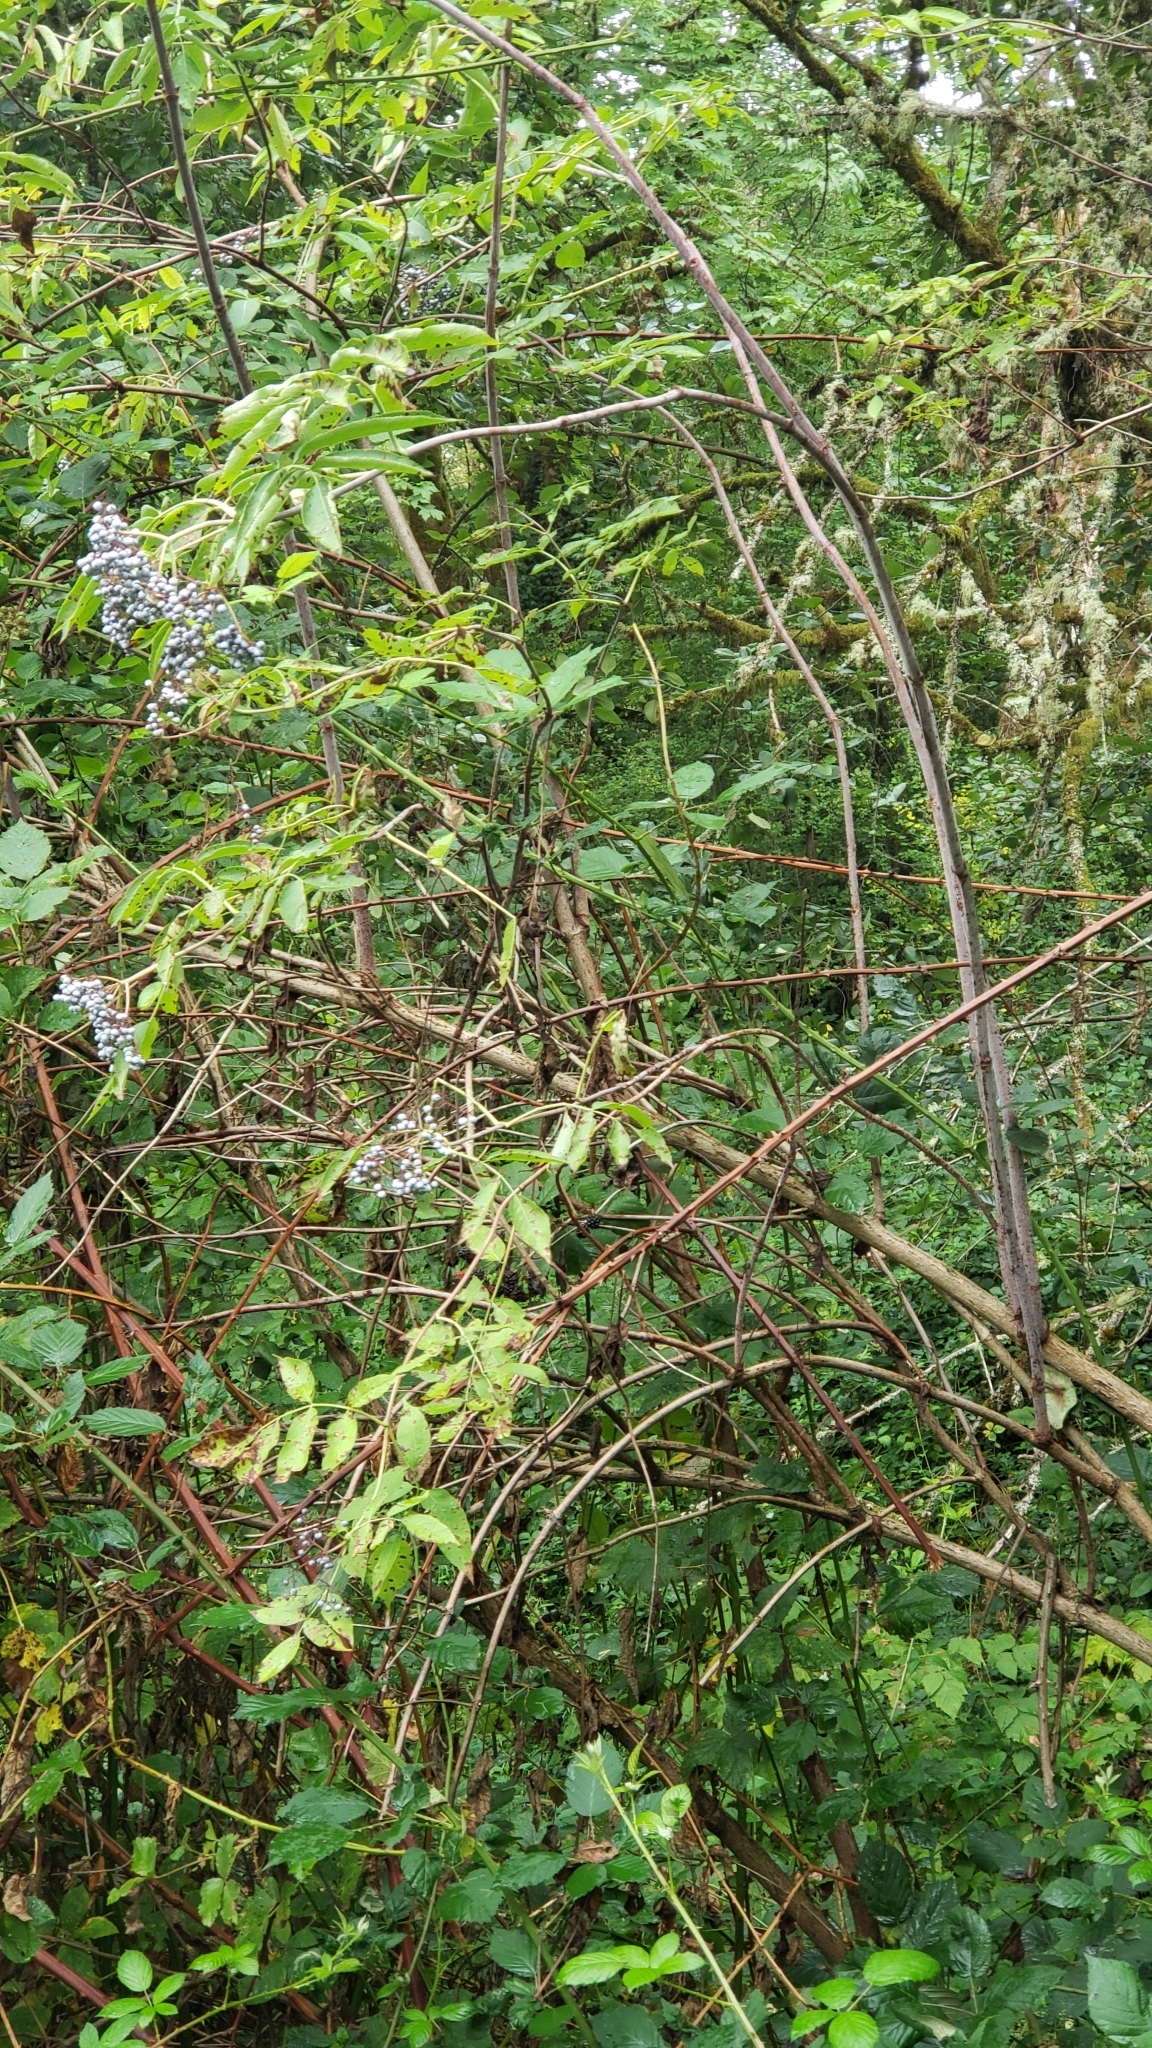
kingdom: Plantae
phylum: Tracheophyta
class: Magnoliopsida
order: Dipsacales
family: Viburnaceae
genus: Sambucus
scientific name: Sambucus cerulea
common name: Blue elder
